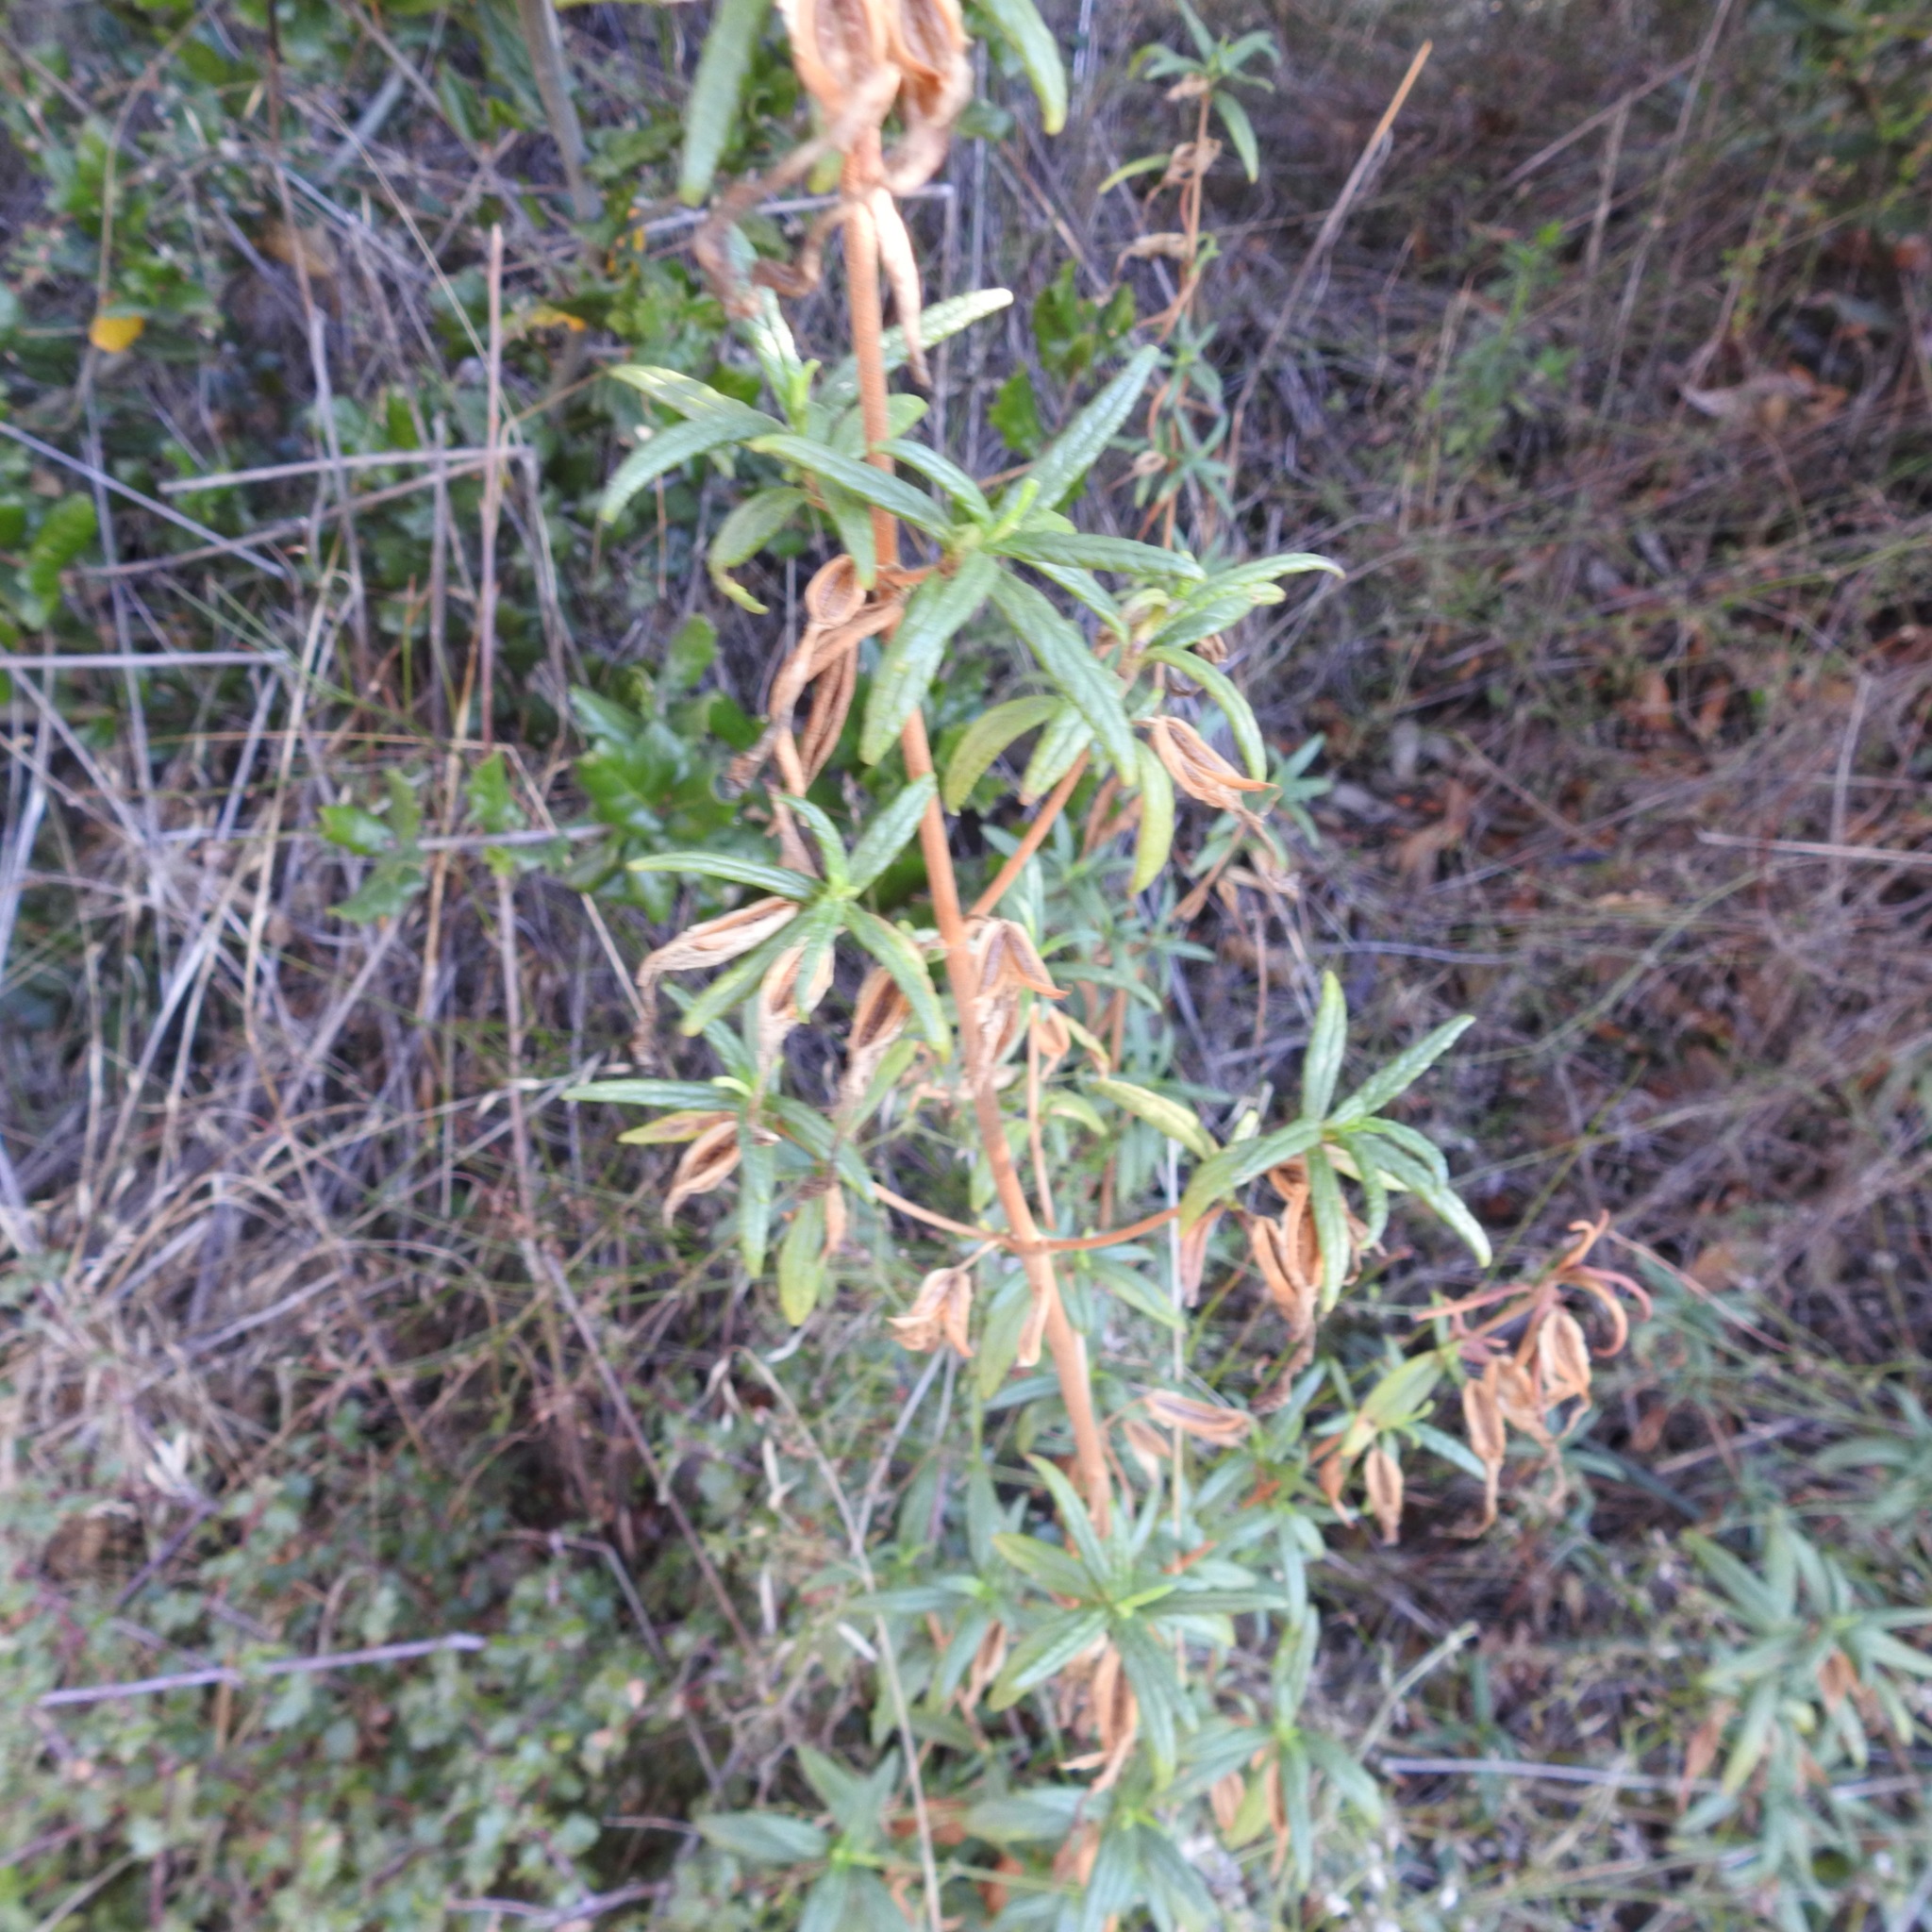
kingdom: Plantae
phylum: Tracheophyta
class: Magnoliopsida
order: Lamiales
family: Phrymaceae
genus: Diplacus
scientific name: Diplacus aurantiacus
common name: Bush monkey-flower
